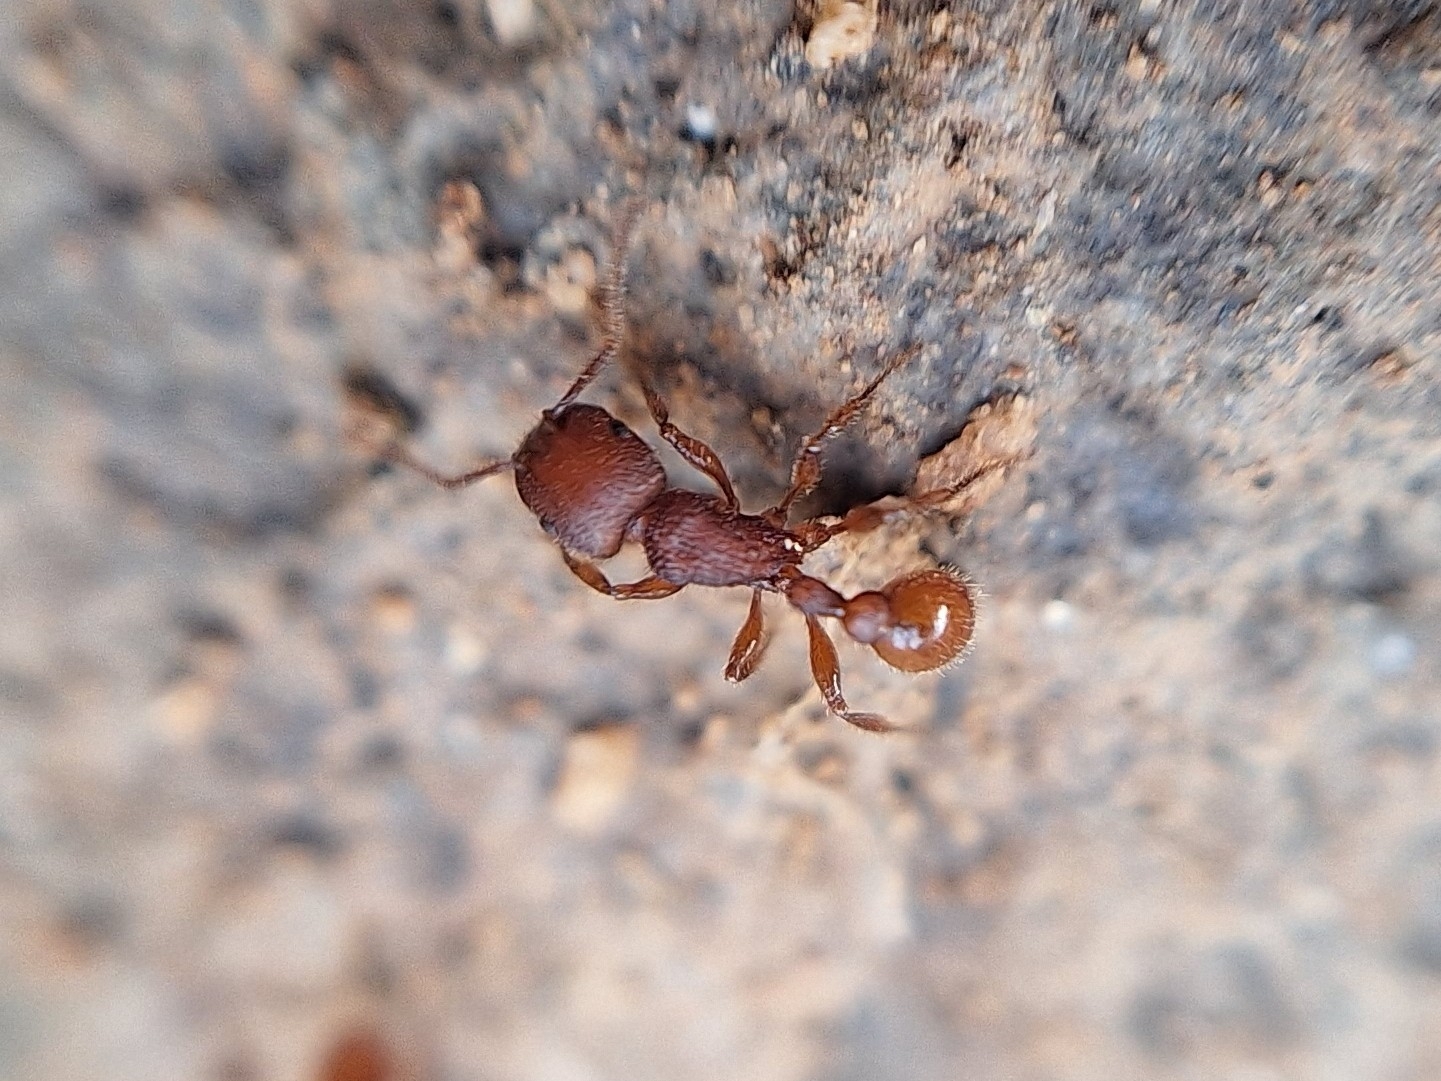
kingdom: Animalia
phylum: Arthropoda
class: Insecta
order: Hymenoptera
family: Formicidae
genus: Pogonomyrmex
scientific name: Pogonomyrmex imberbiculus
